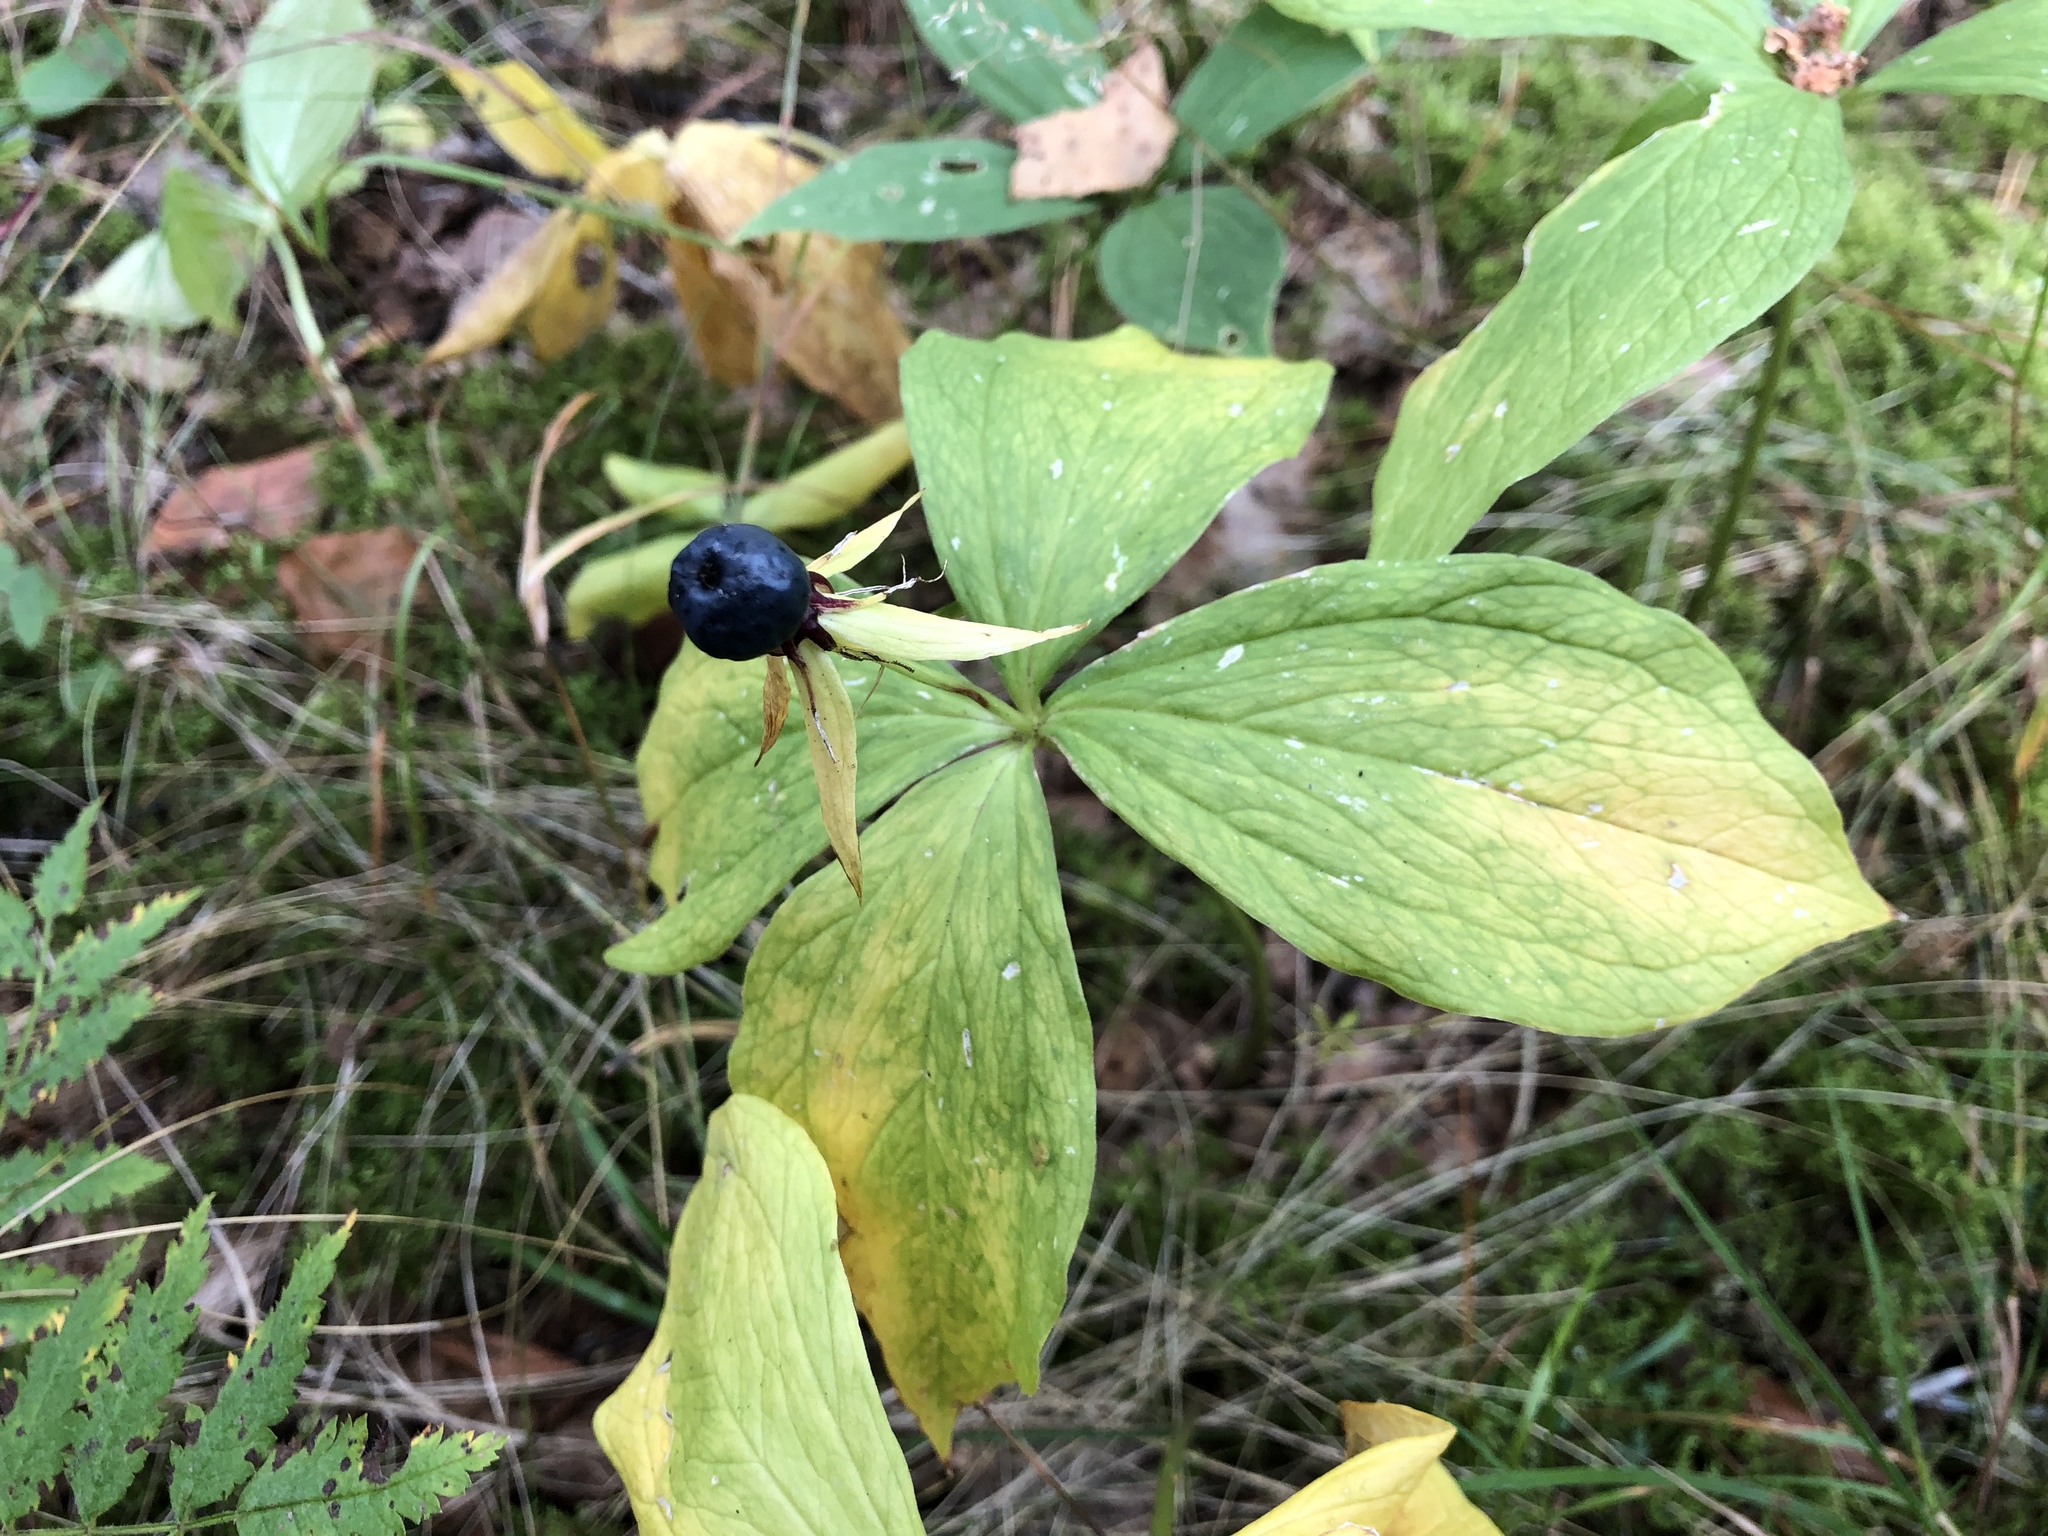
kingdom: Plantae
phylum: Tracheophyta
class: Liliopsida
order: Liliales
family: Melanthiaceae
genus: Paris
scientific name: Paris quadrifolia
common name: Herb-paris
